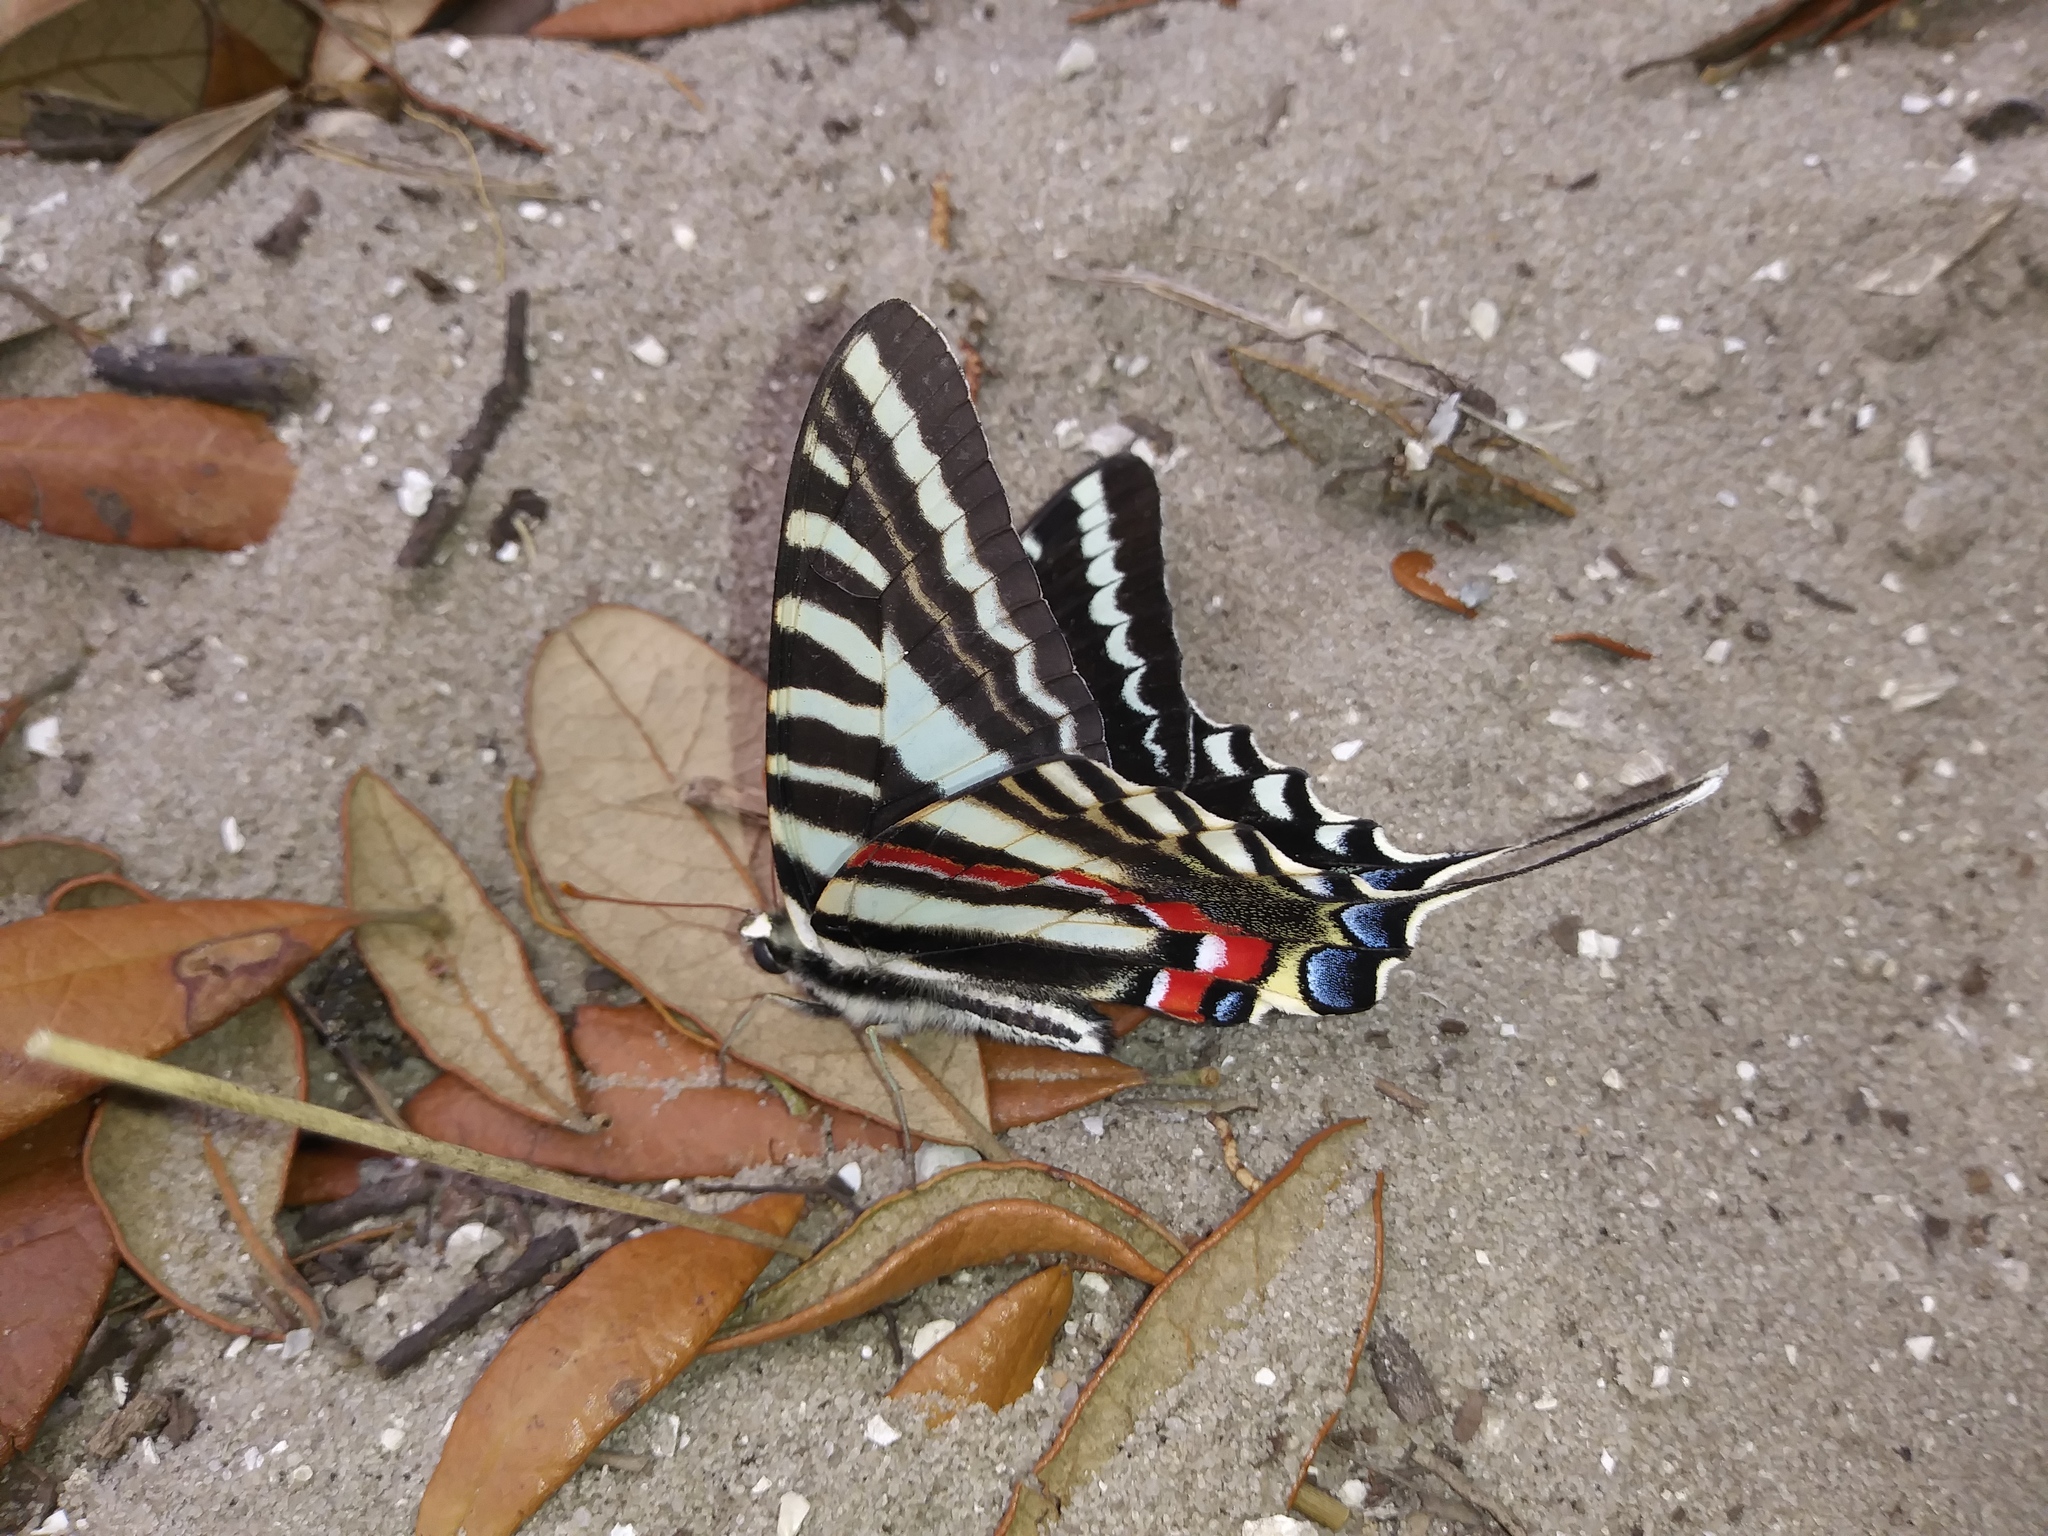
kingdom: Animalia
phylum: Arthropoda
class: Insecta
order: Lepidoptera
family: Papilionidae
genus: Protographium
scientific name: Protographium marcellus
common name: Zebra swallowtail
